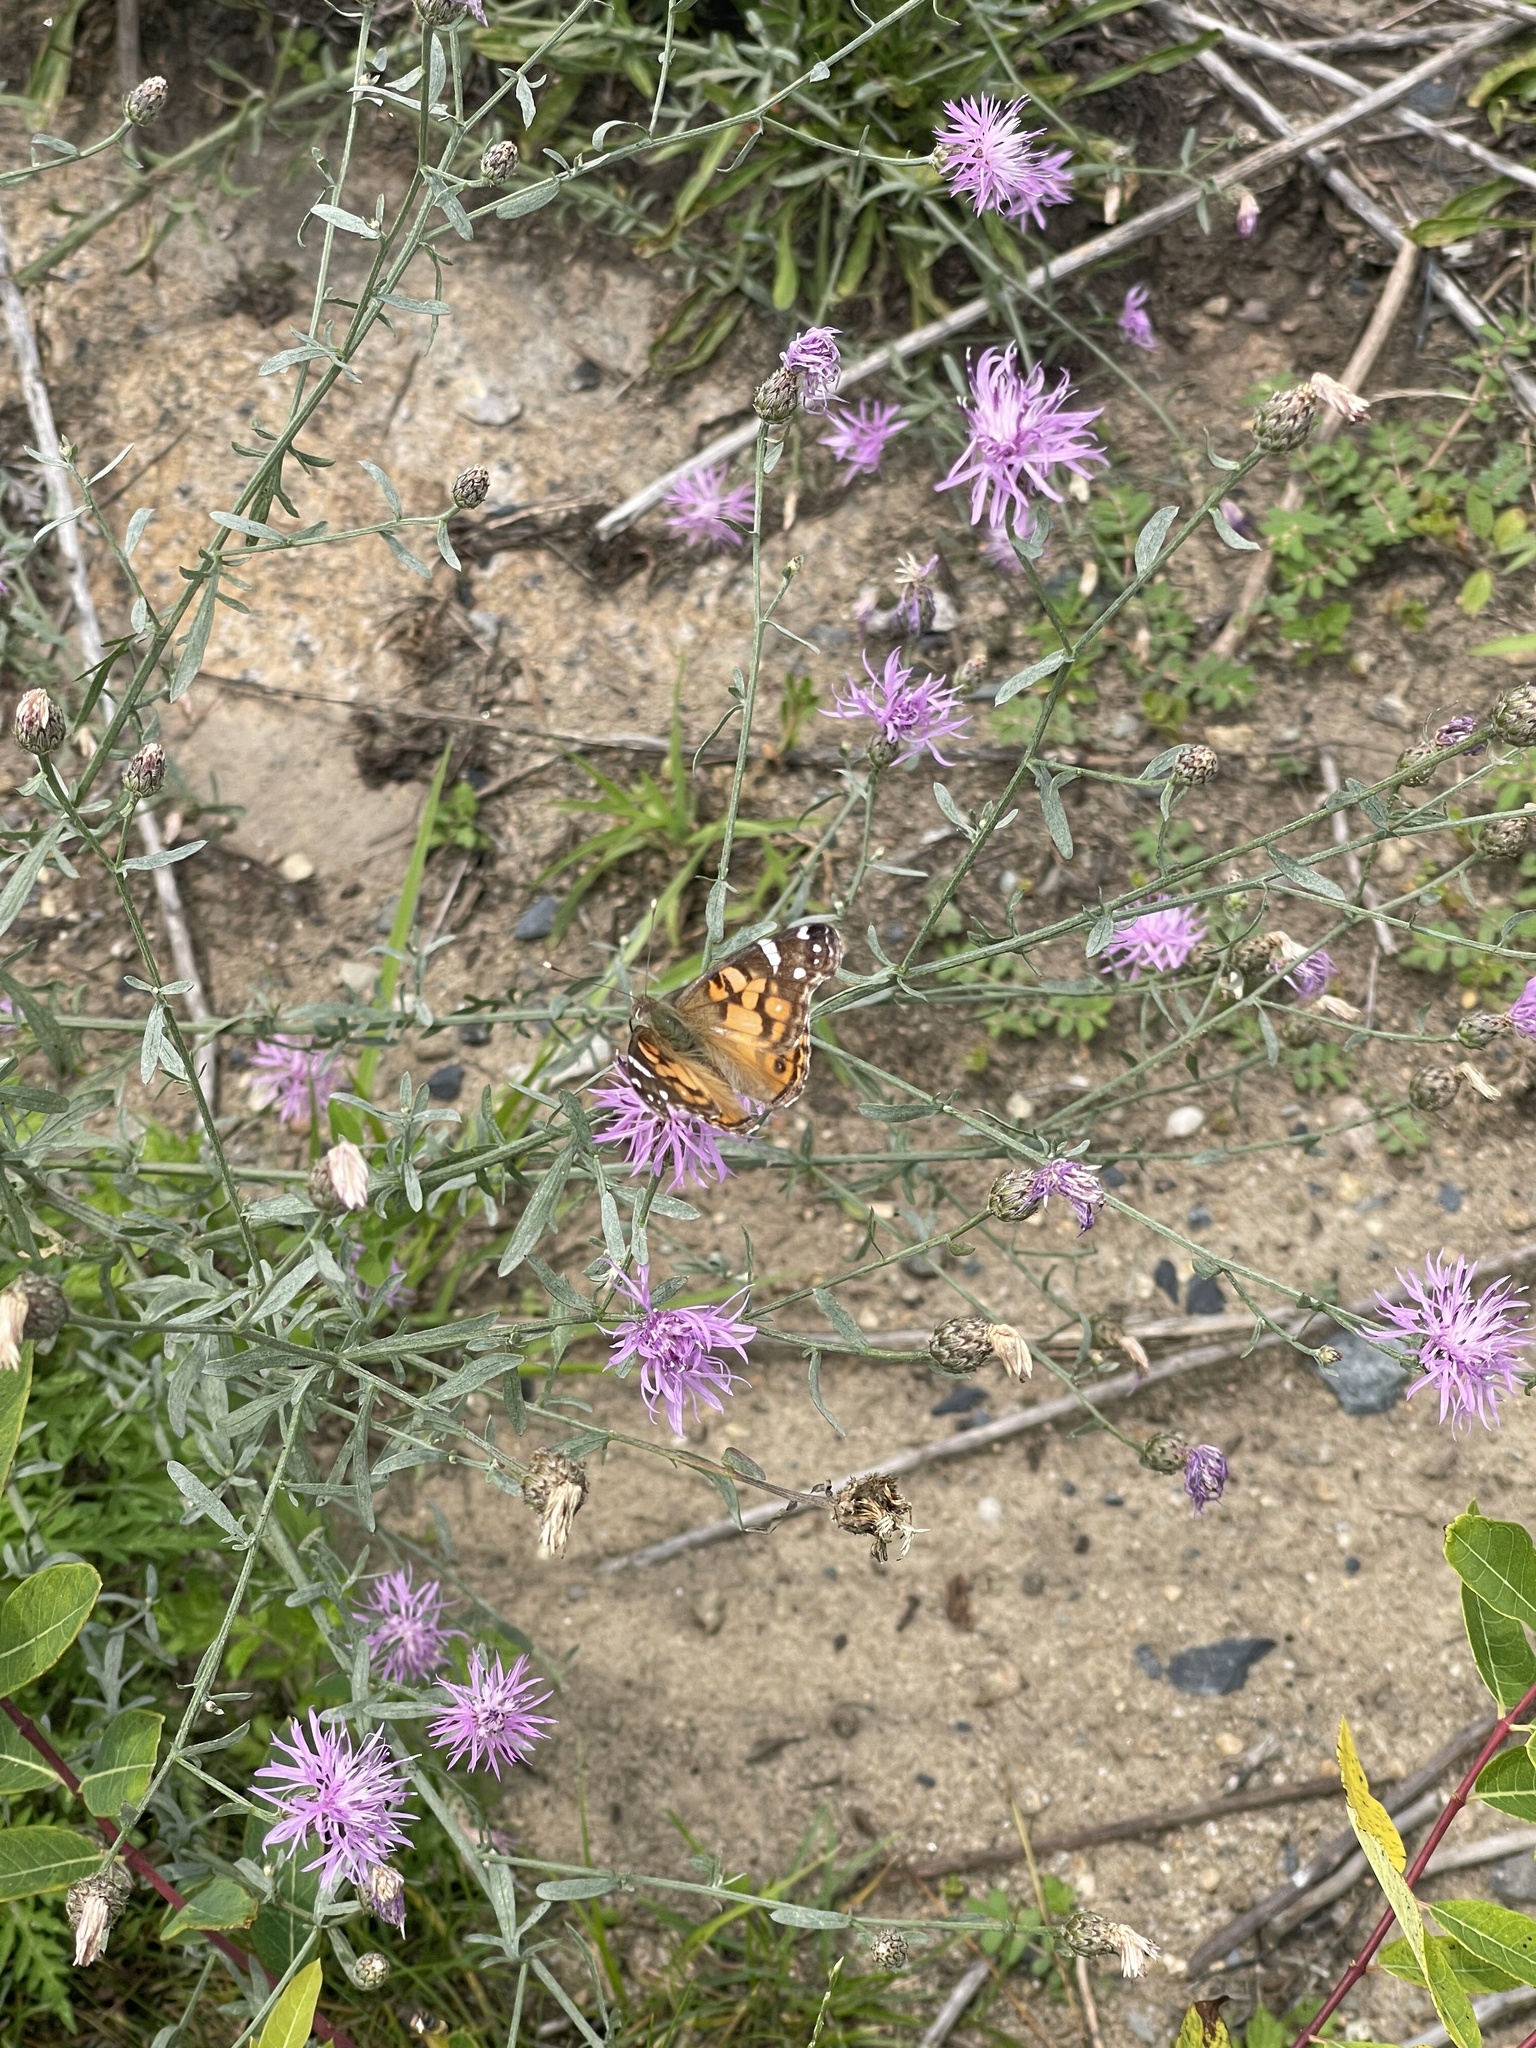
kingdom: Animalia
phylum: Arthropoda
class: Insecta
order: Lepidoptera
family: Nymphalidae
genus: Vanessa
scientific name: Vanessa virginiensis
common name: American lady
